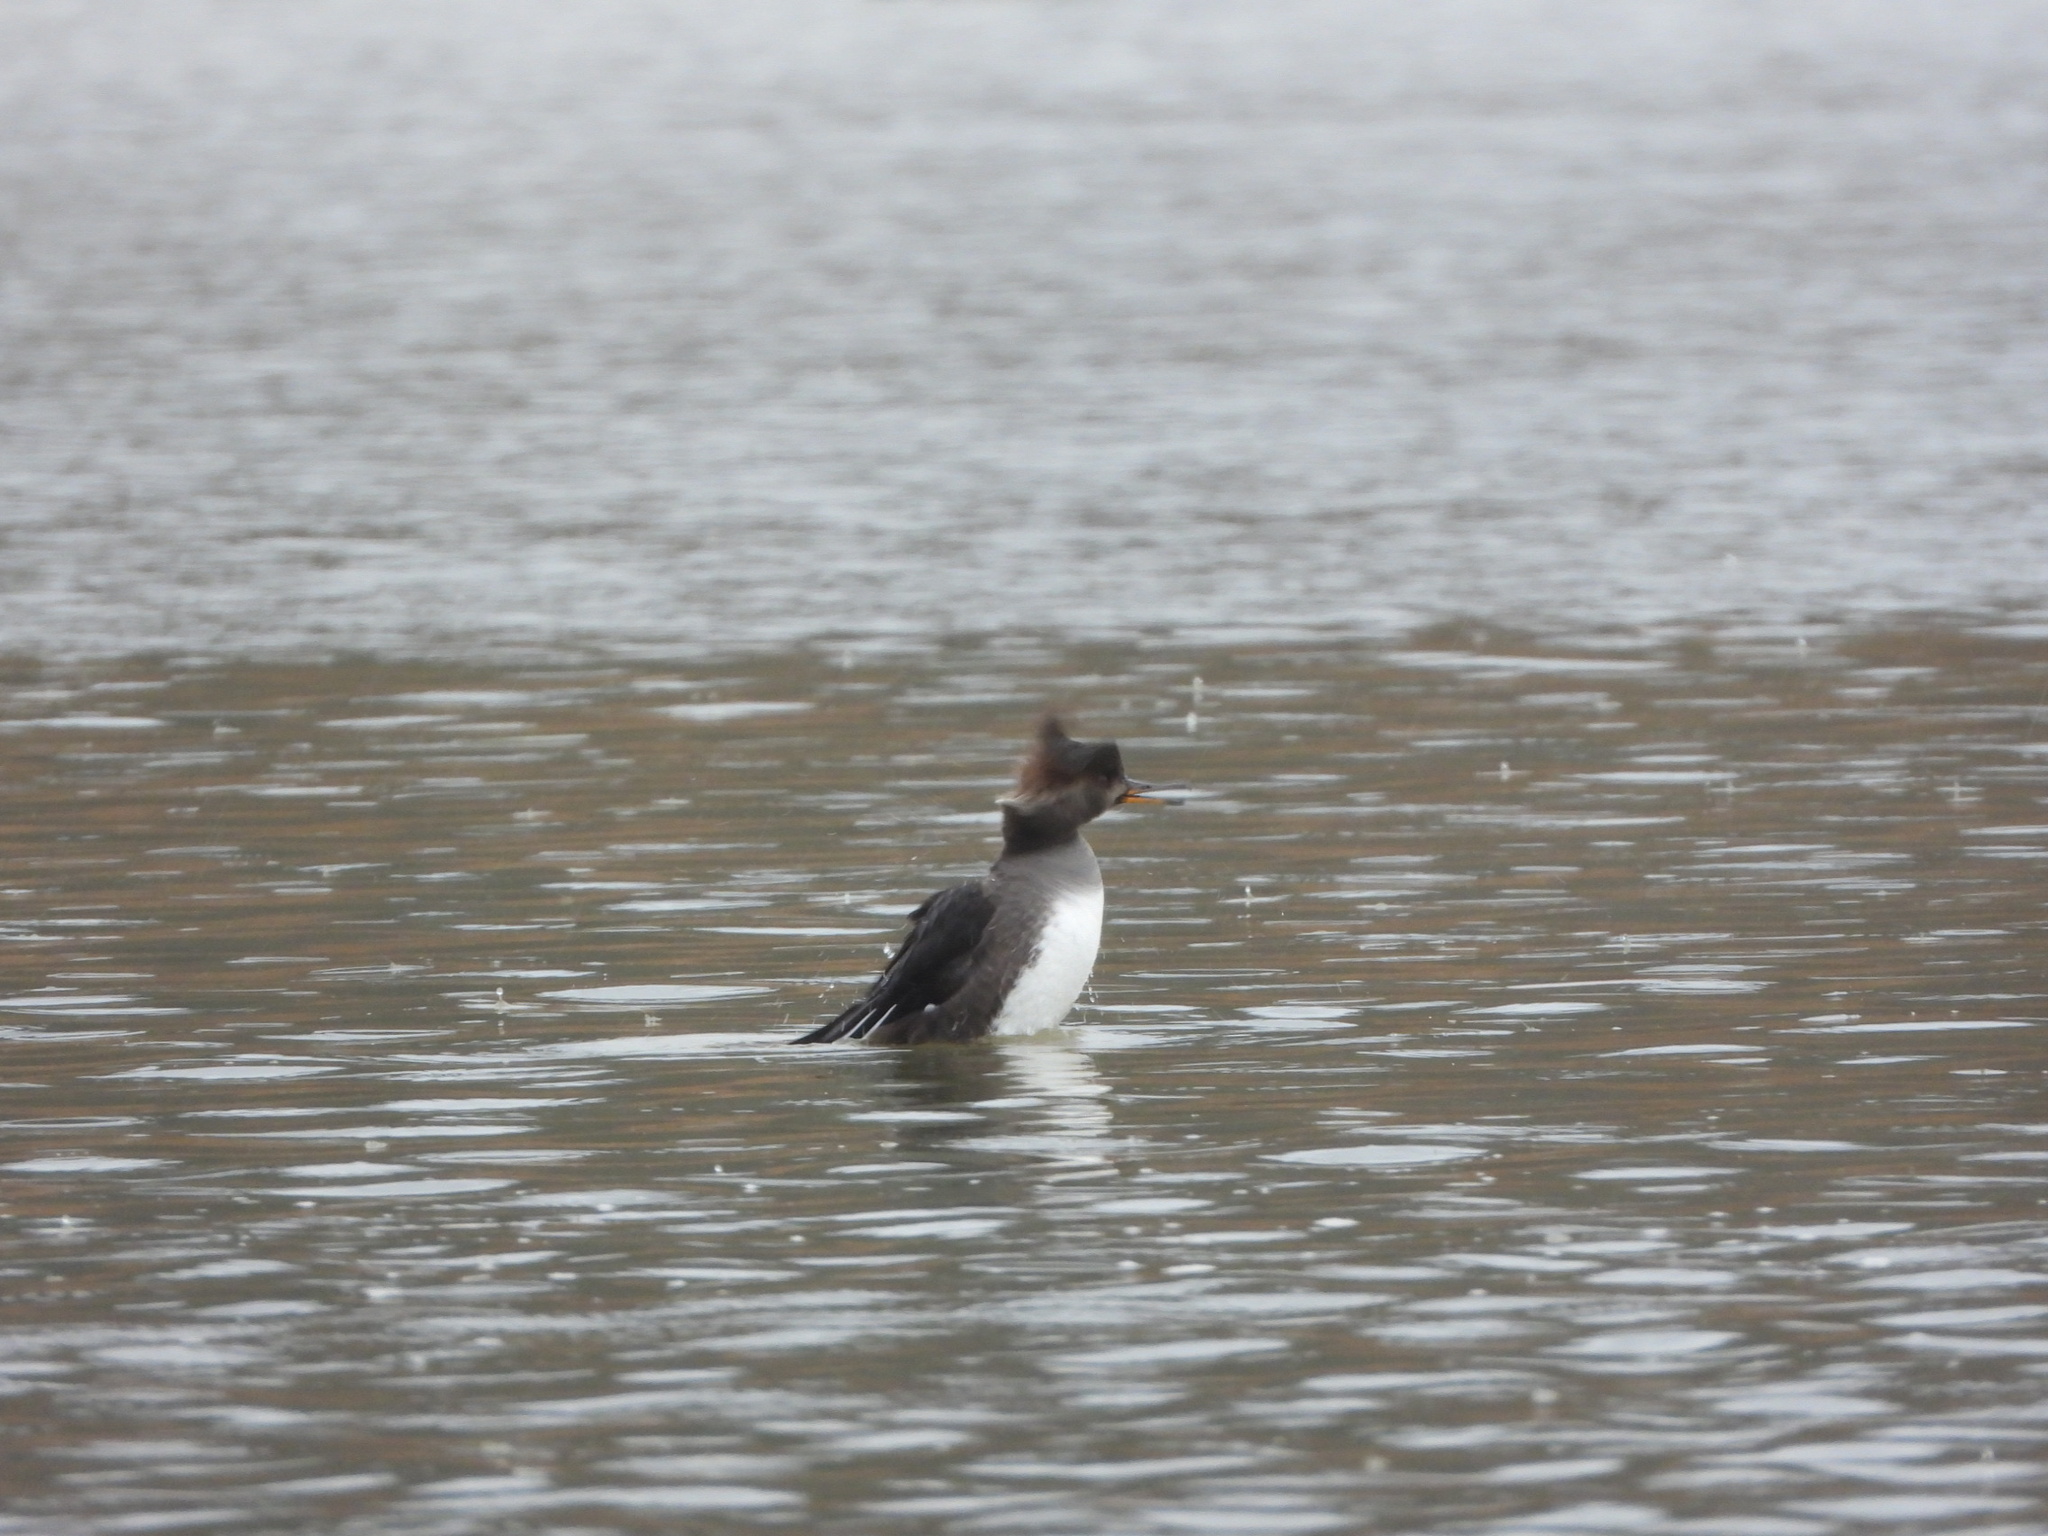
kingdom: Animalia
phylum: Chordata
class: Aves
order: Anseriformes
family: Anatidae
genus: Lophodytes
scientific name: Lophodytes cucullatus
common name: Hooded merganser
